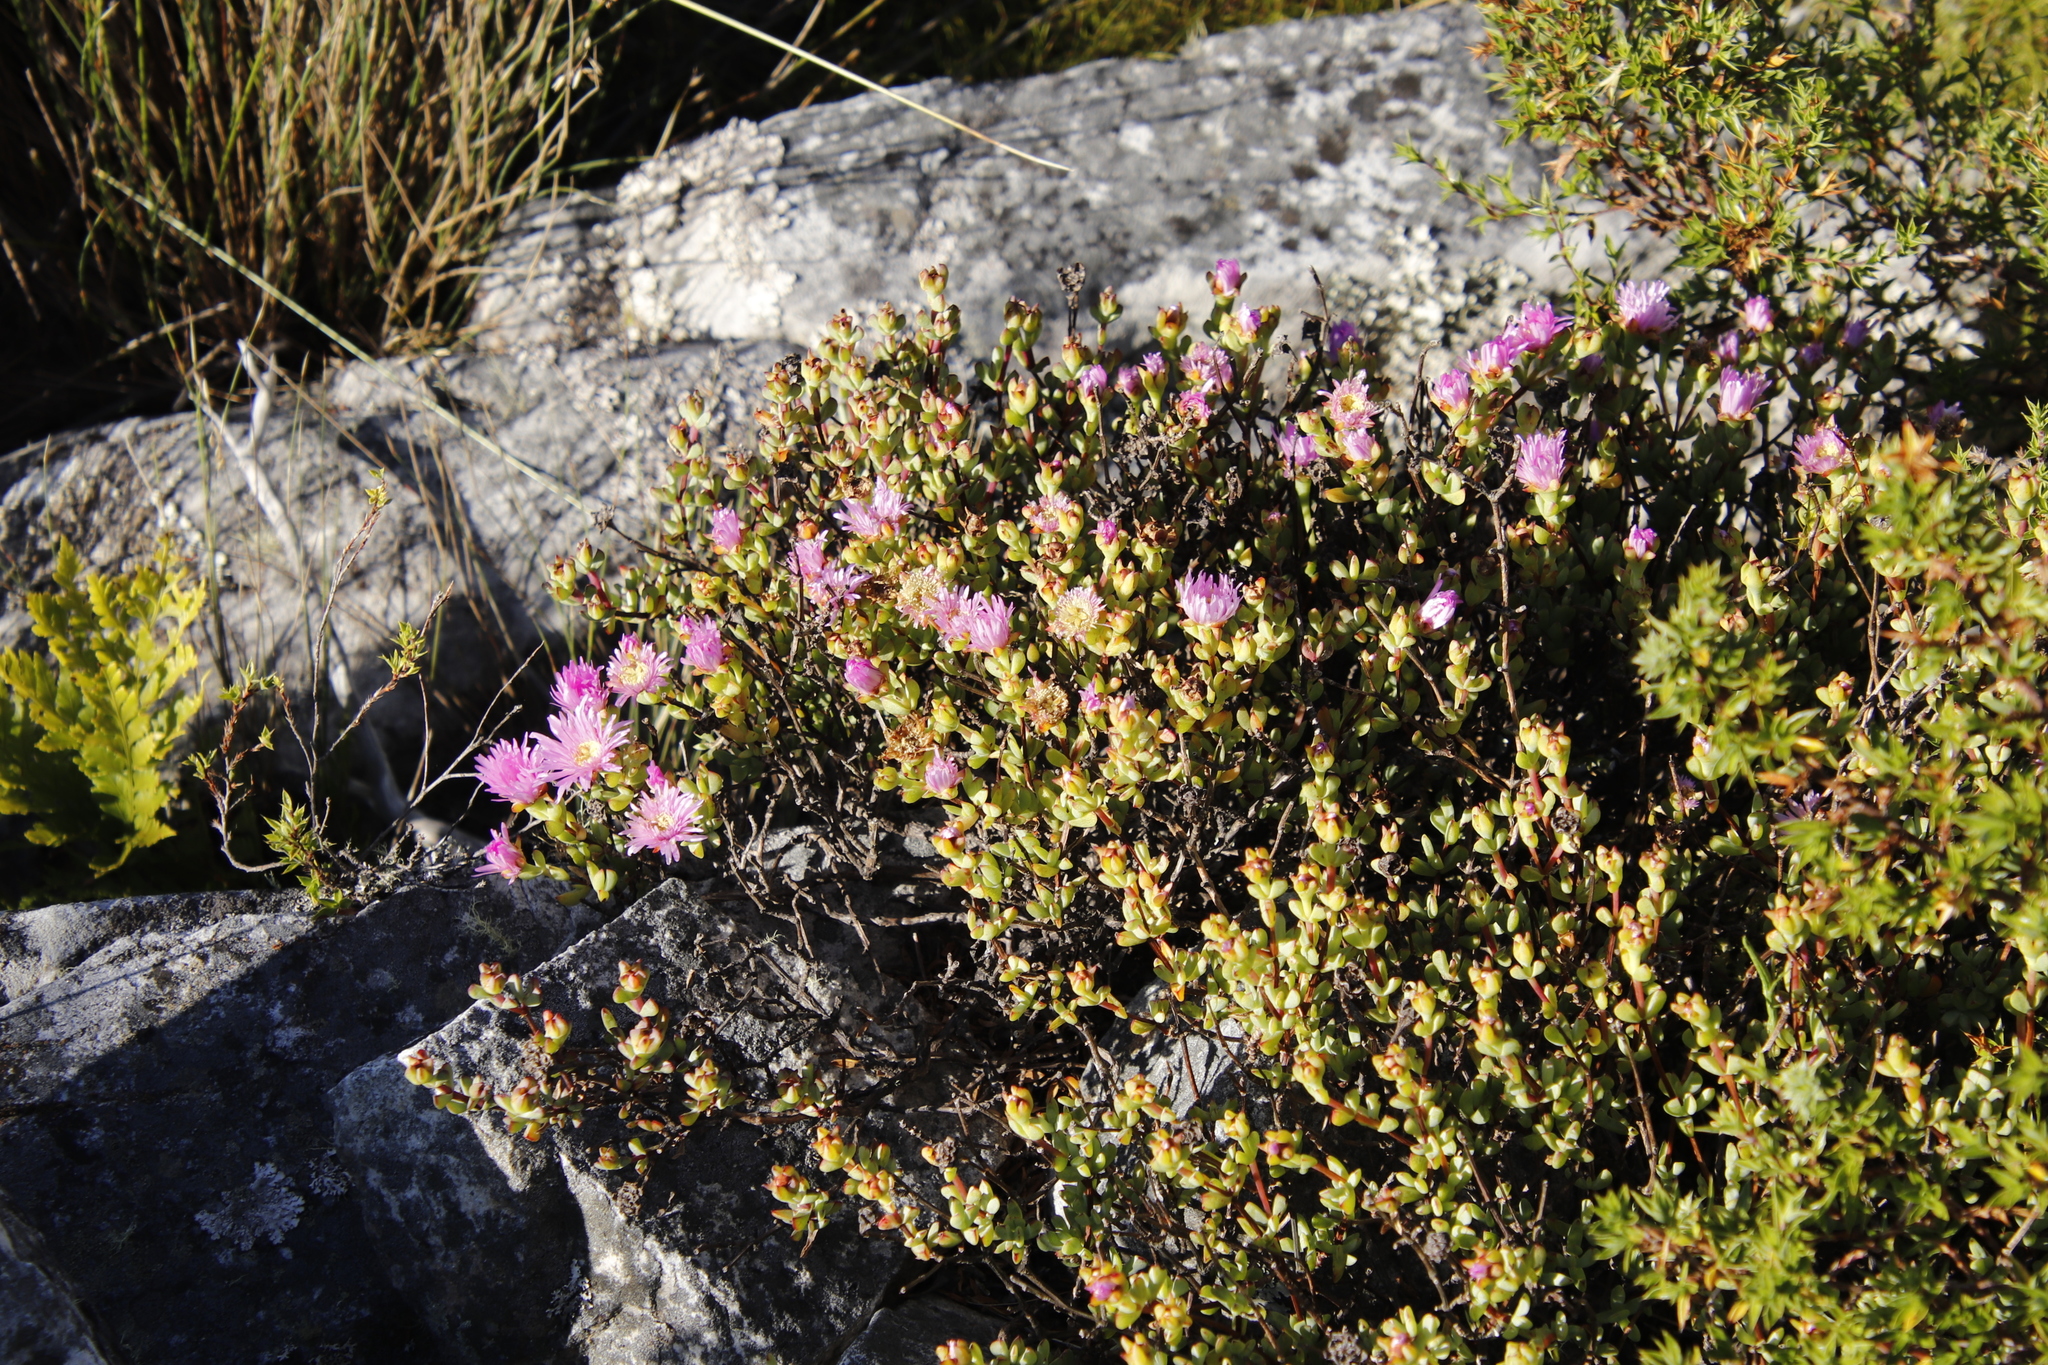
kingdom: Plantae
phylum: Tracheophyta
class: Magnoliopsida
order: Caryophyllales
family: Aizoaceae
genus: Oscularia
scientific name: Oscularia falciformis
